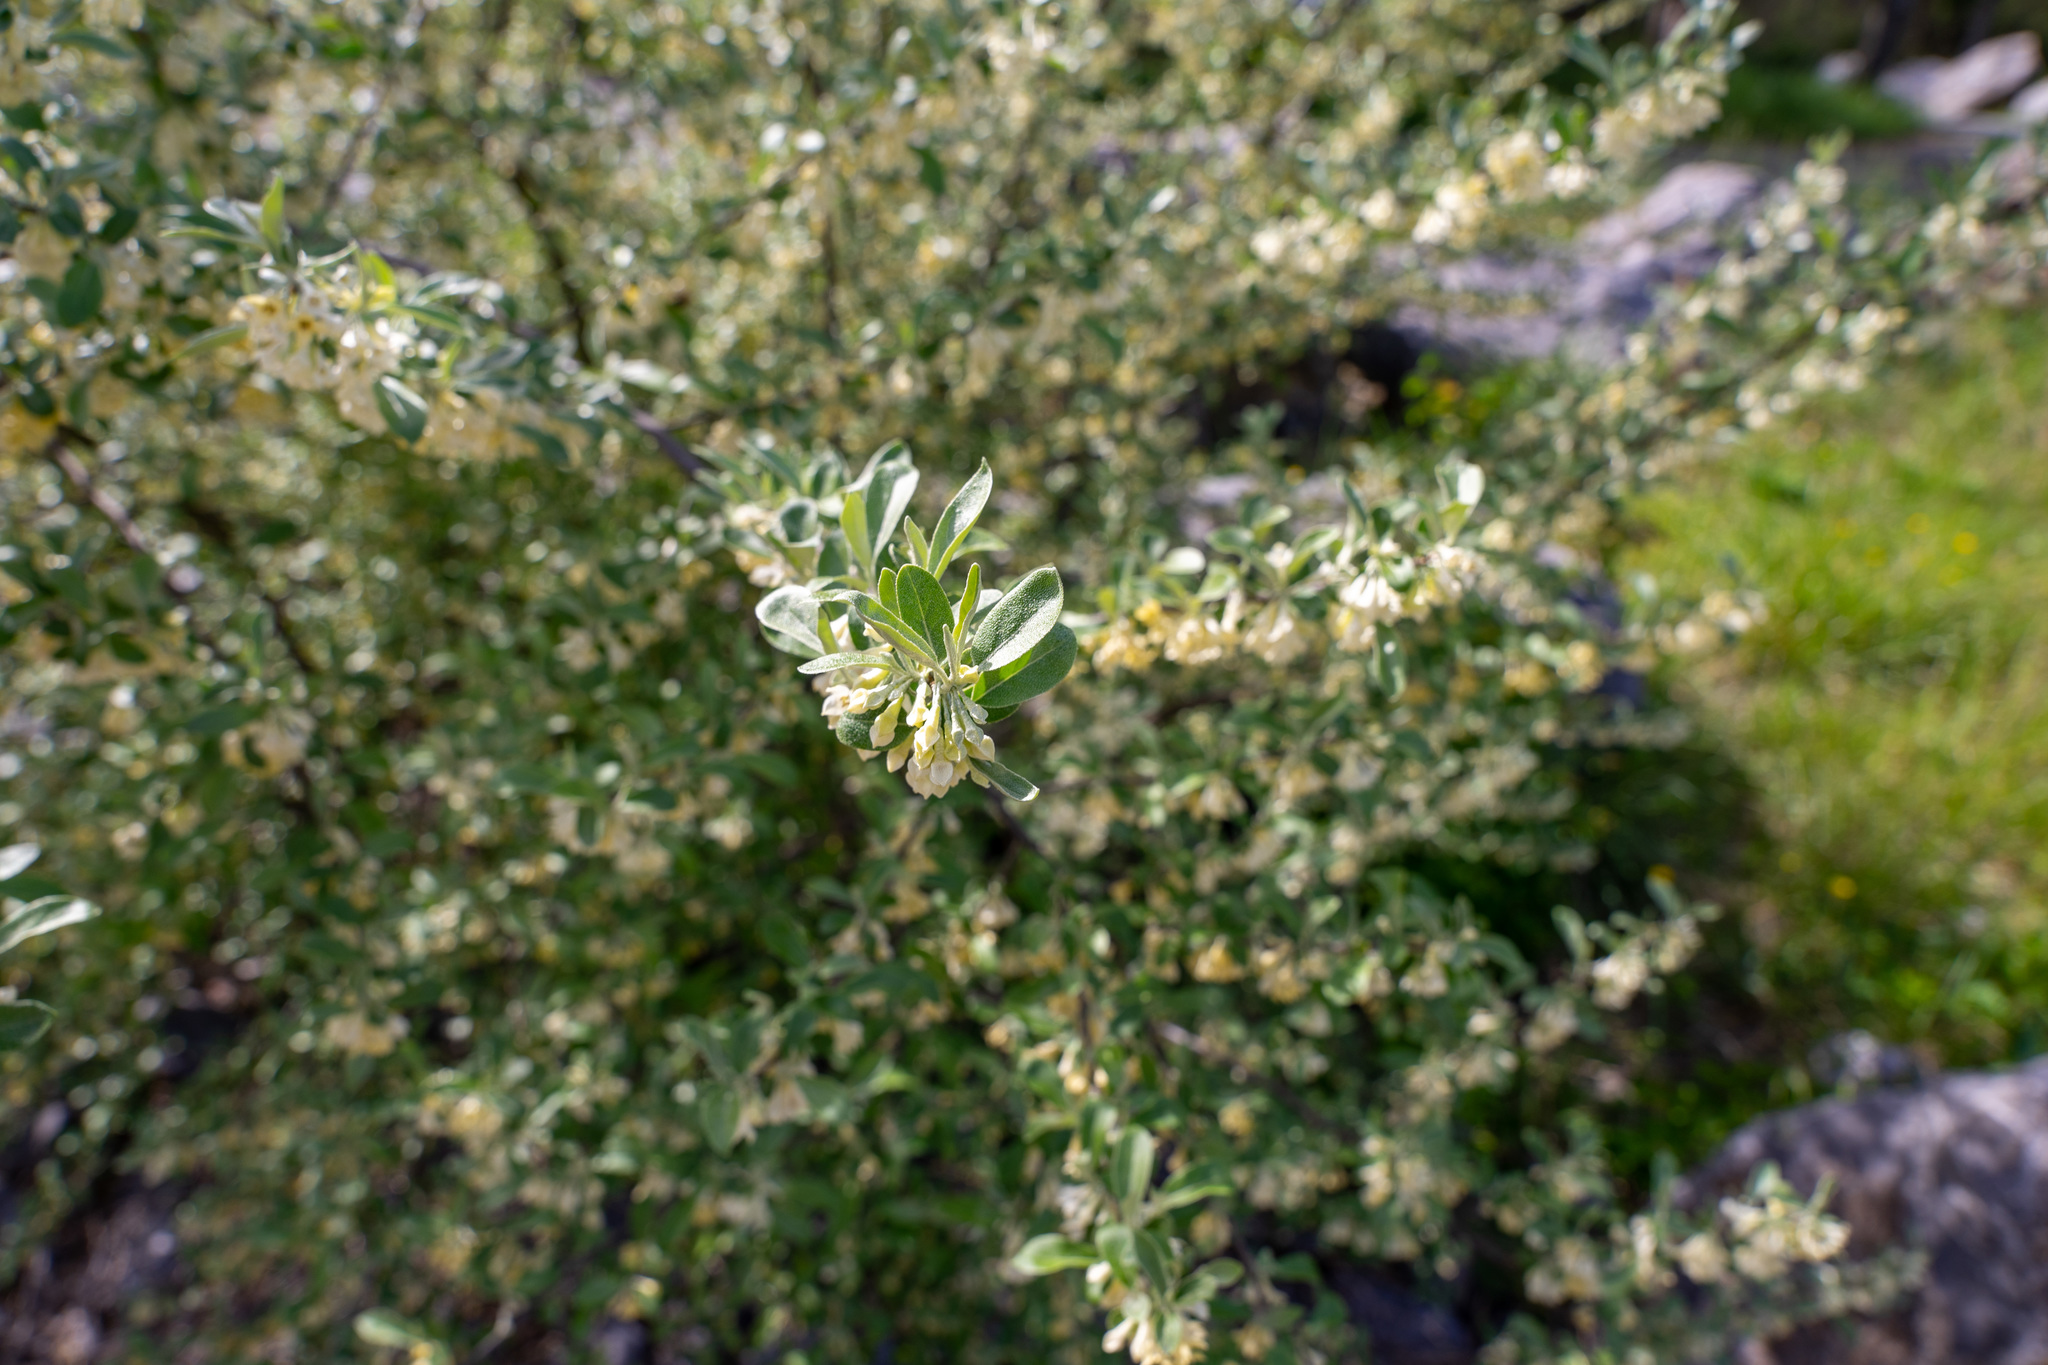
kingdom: Plantae
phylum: Tracheophyta
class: Magnoliopsida
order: Rosales
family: Elaeagnaceae
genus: Elaeagnus
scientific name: Elaeagnus umbellata
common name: Autumn olive
